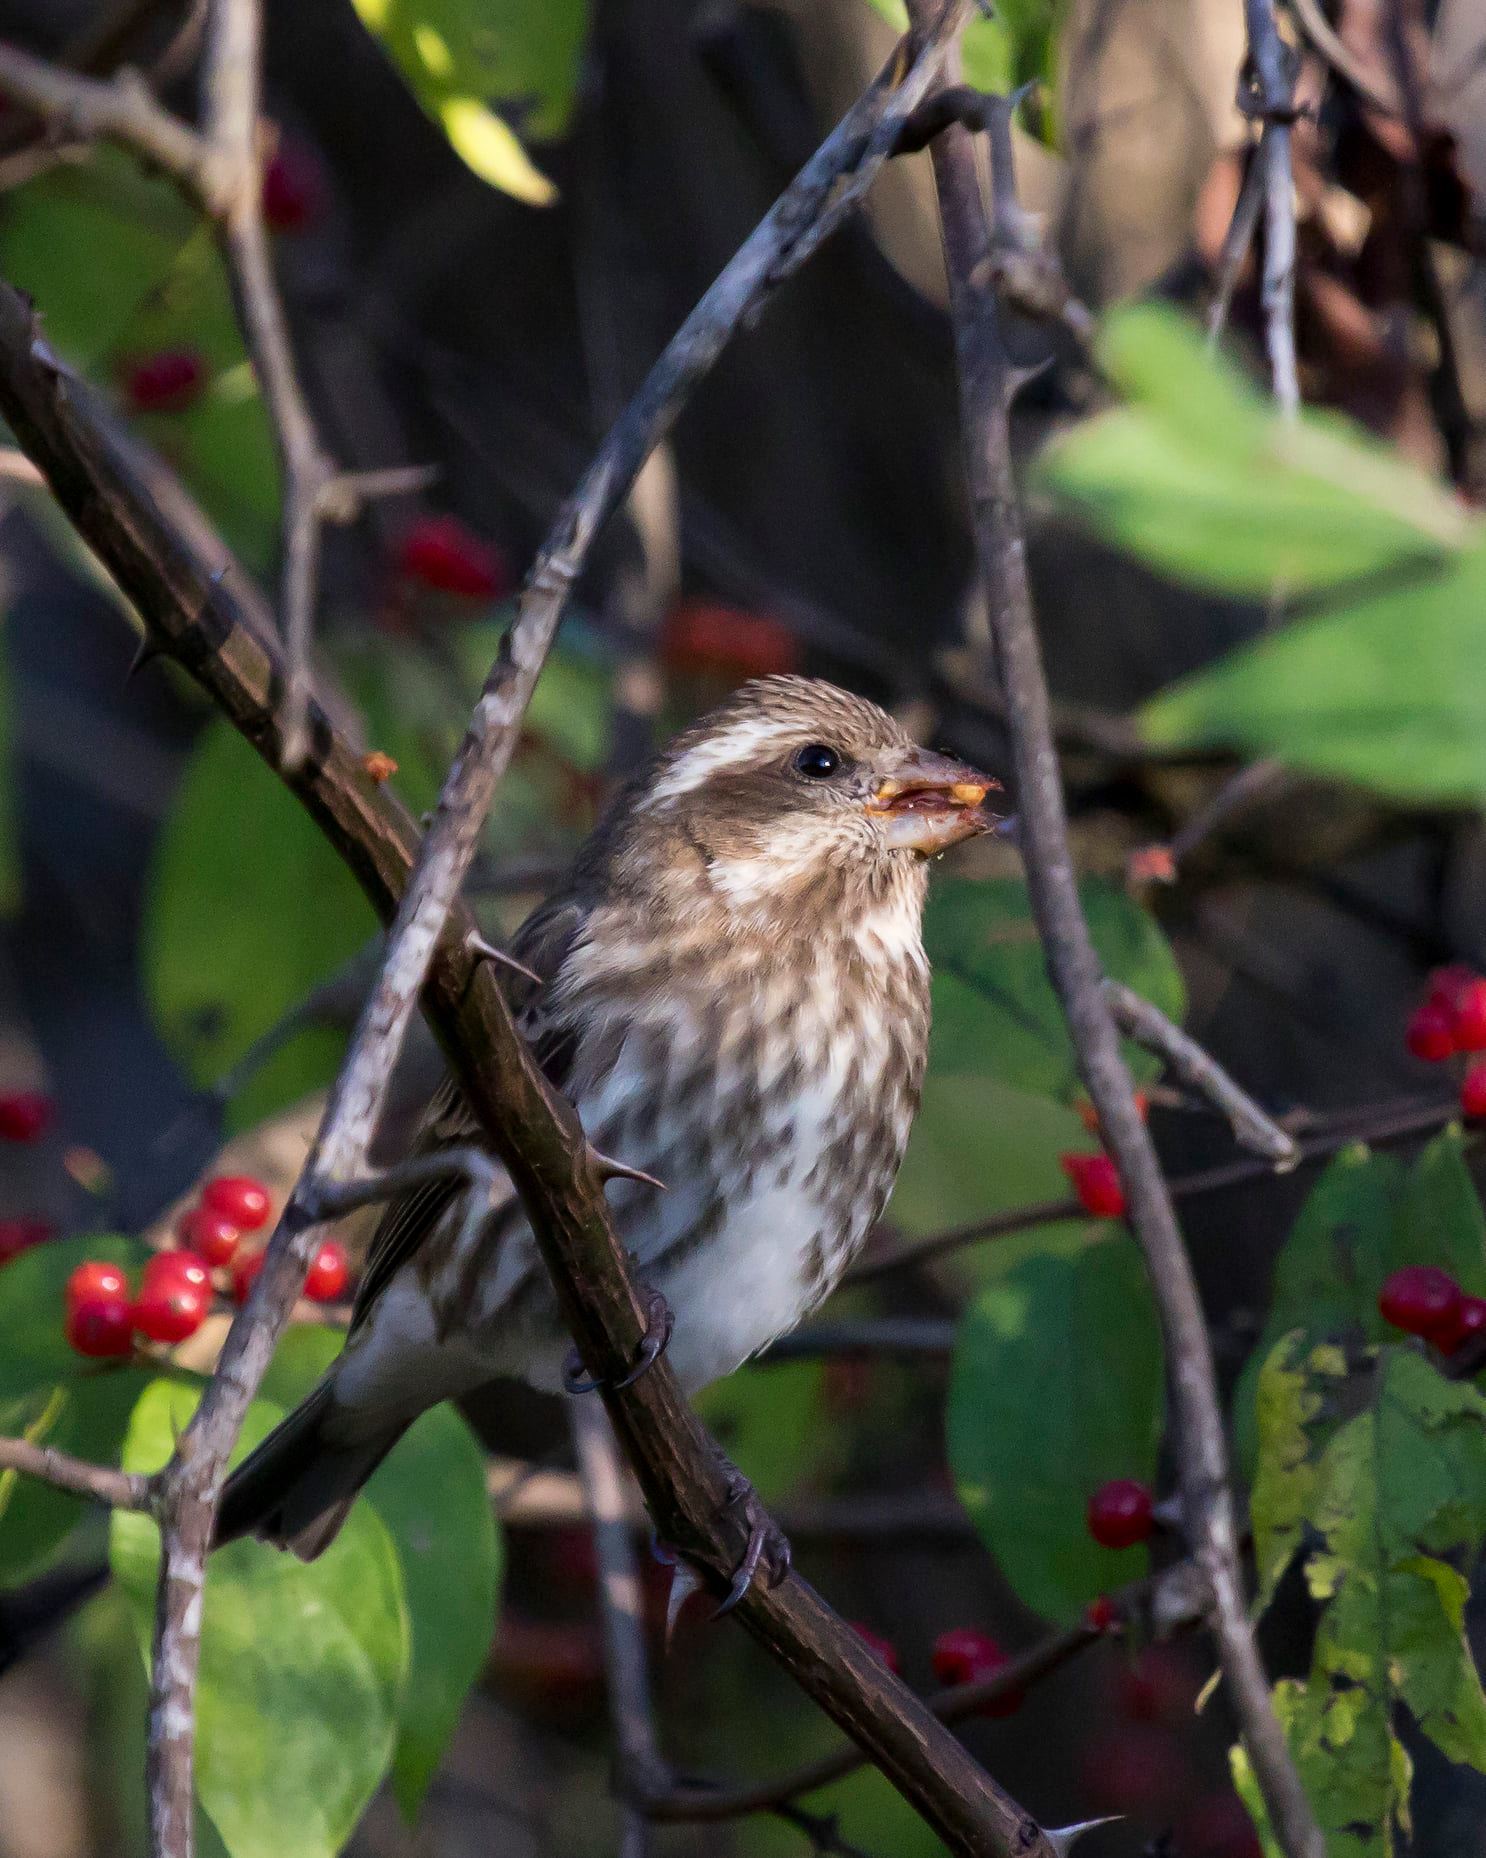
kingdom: Animalia
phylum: Chordata
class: Aves
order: Passeriformes
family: Fringillidae
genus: Haemorhous
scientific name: Haemorhous purpureus
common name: Purple finch
